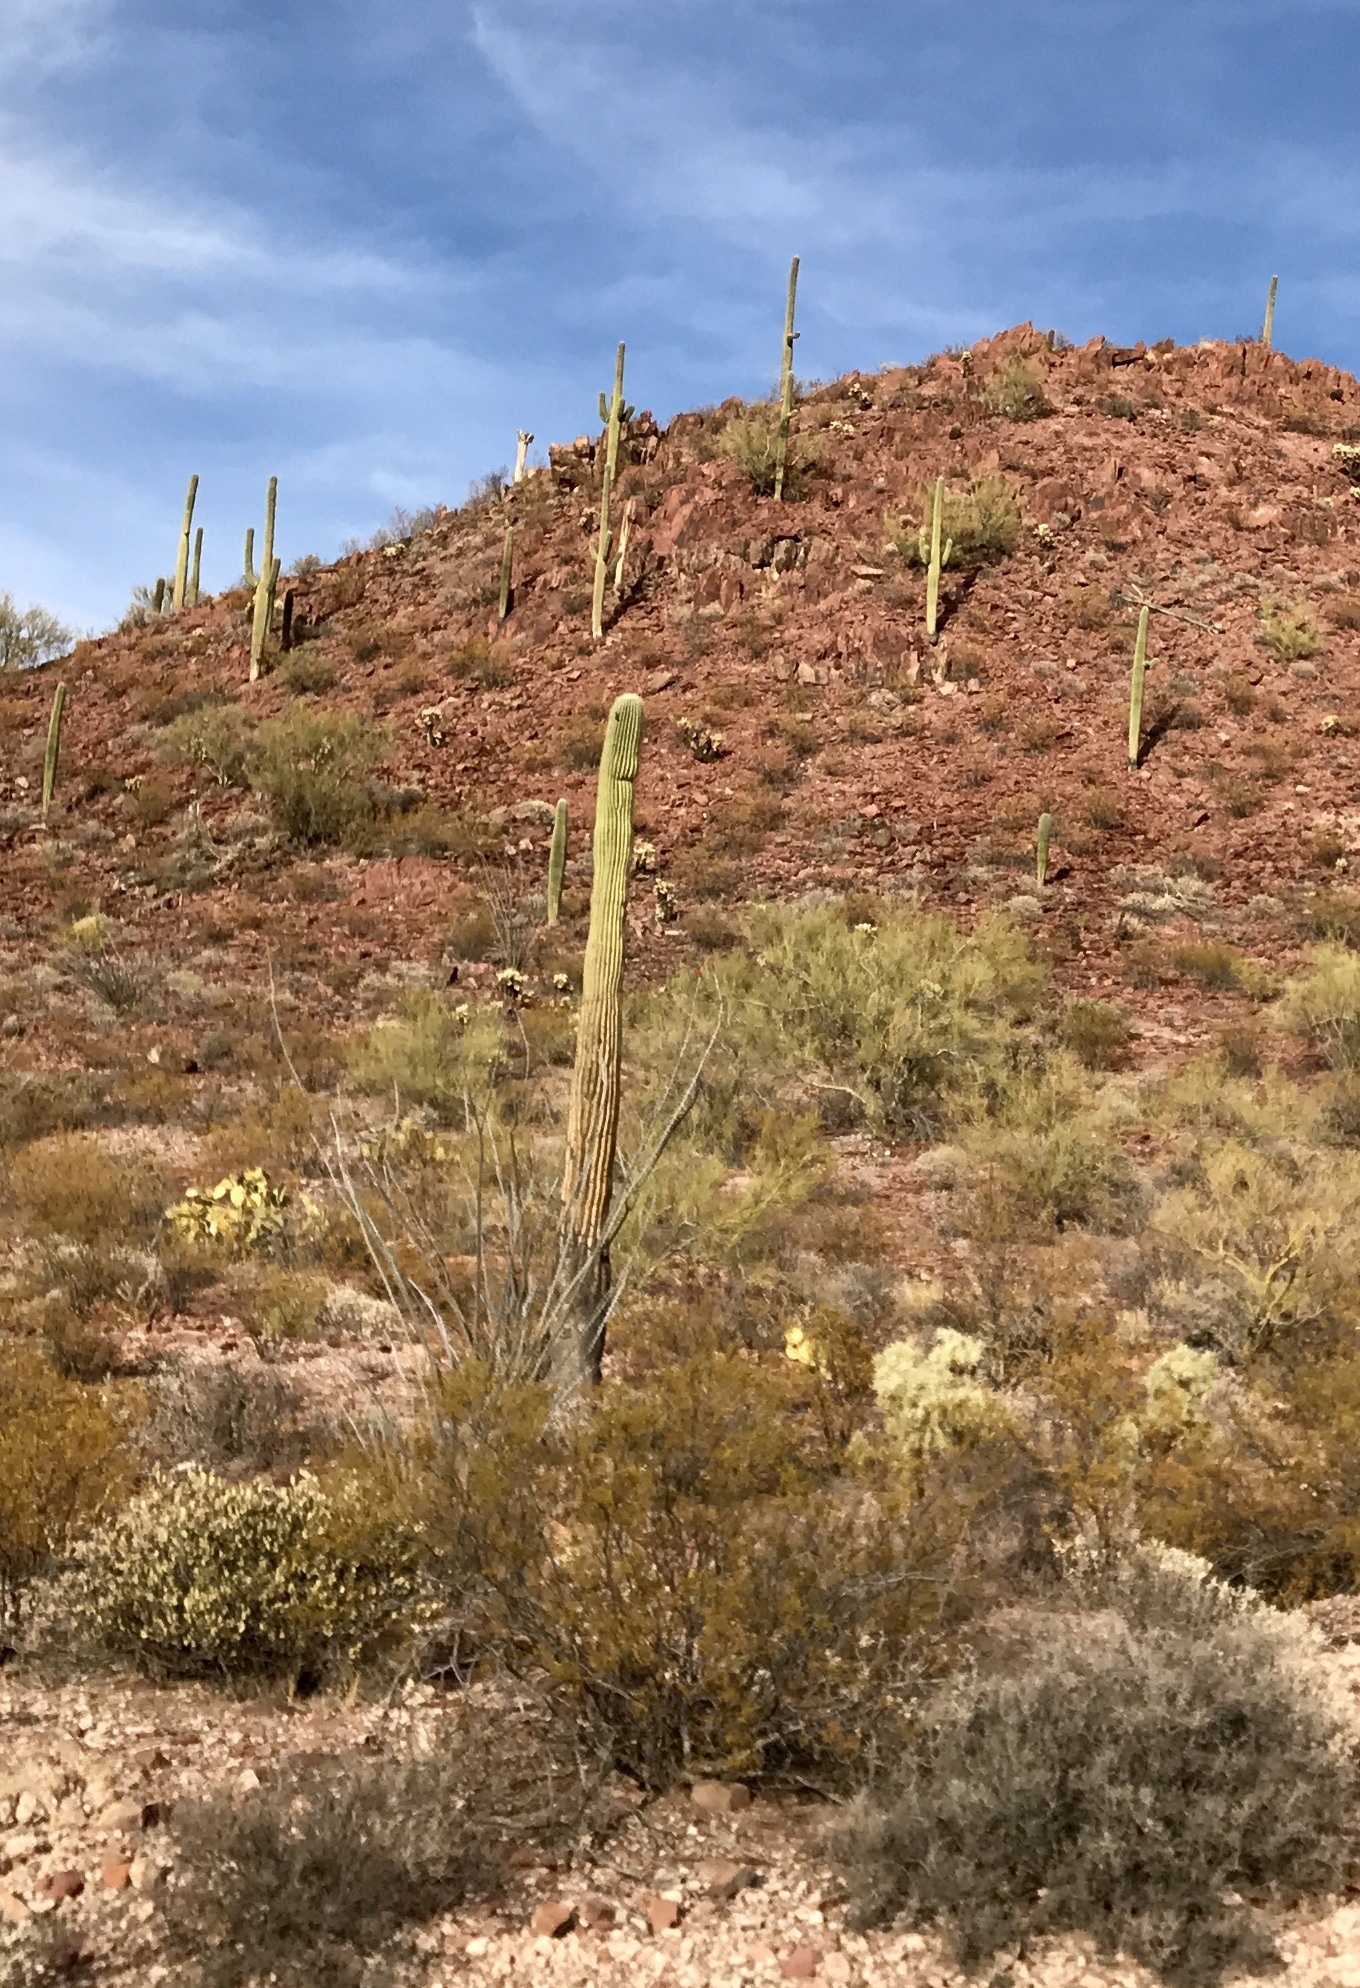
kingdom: Plantae
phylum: Tracheophyta
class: Magnoliopsida
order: Caryophyllales
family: Cactaceae
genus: Carnegiea
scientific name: Carnegiea gigantea
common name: Saguaro
